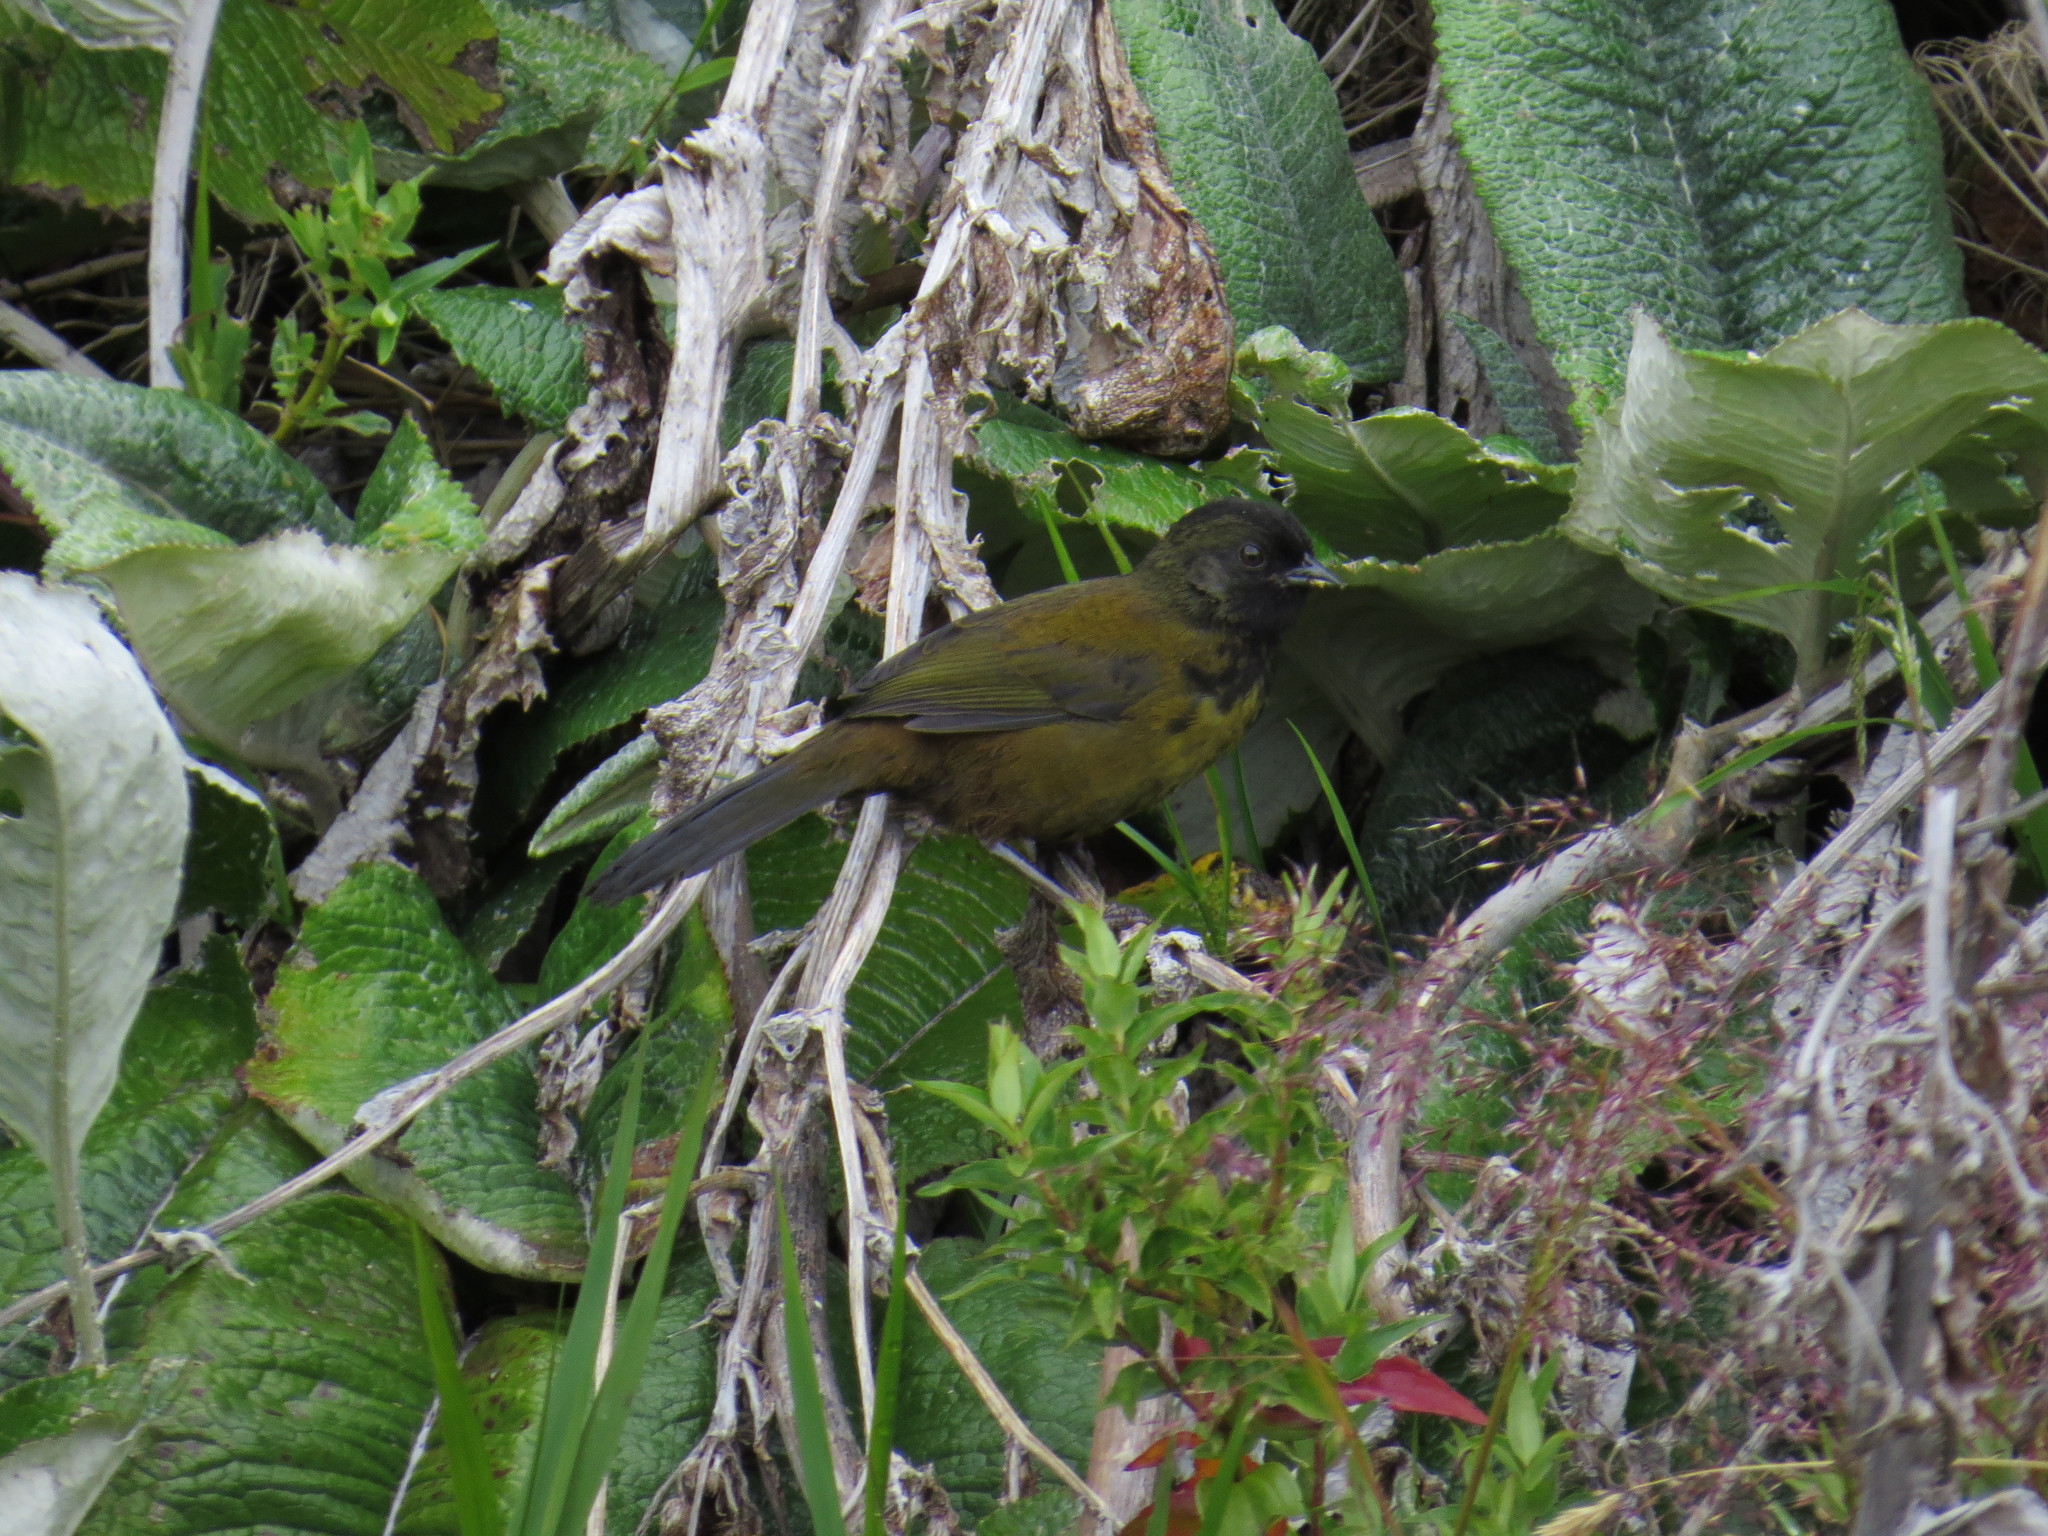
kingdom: Animalia
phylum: Chordata
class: Aves
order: Passeriformes
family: Passerellidae
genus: Pezopetes
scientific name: Pezopetes capitalis
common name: Large-footed finch
